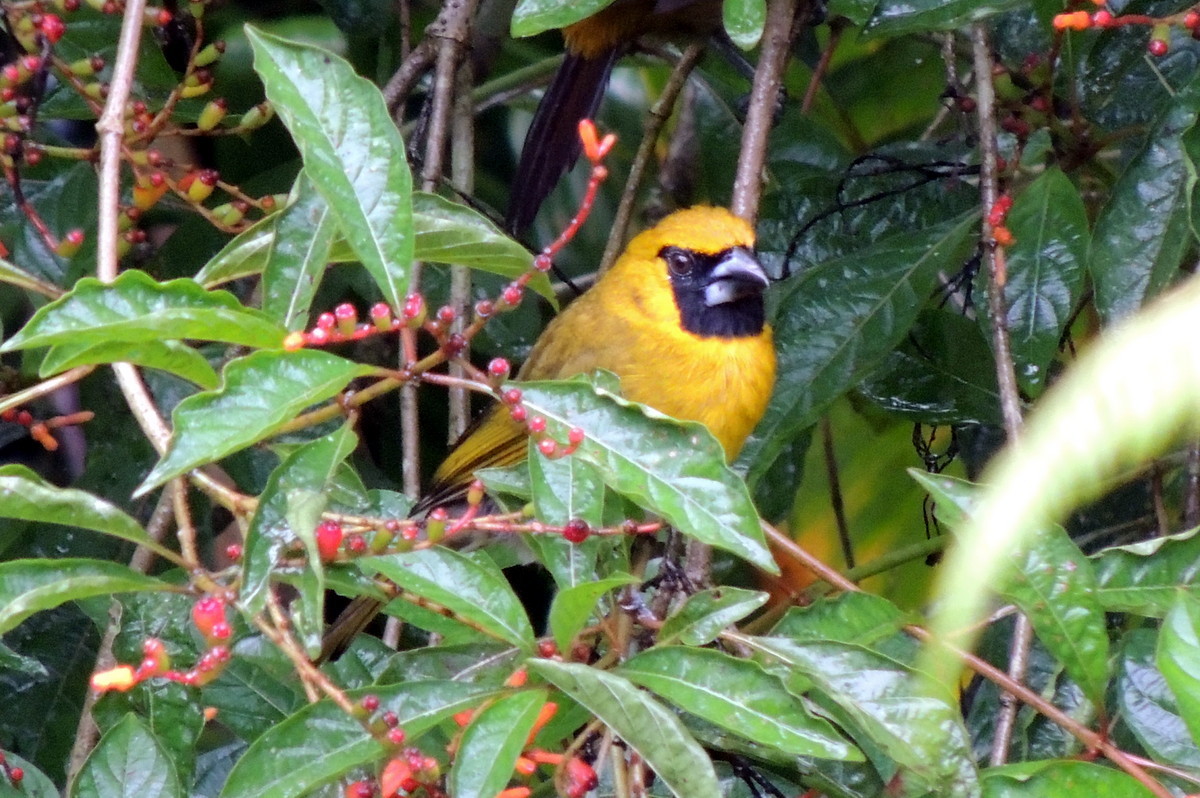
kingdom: Animalia
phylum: Chordata
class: Aves
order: Passeriformes
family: Cardinalidae
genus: Caryothraustes
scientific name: Caryothraustes poliogaster
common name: Black-faced grosbeak
